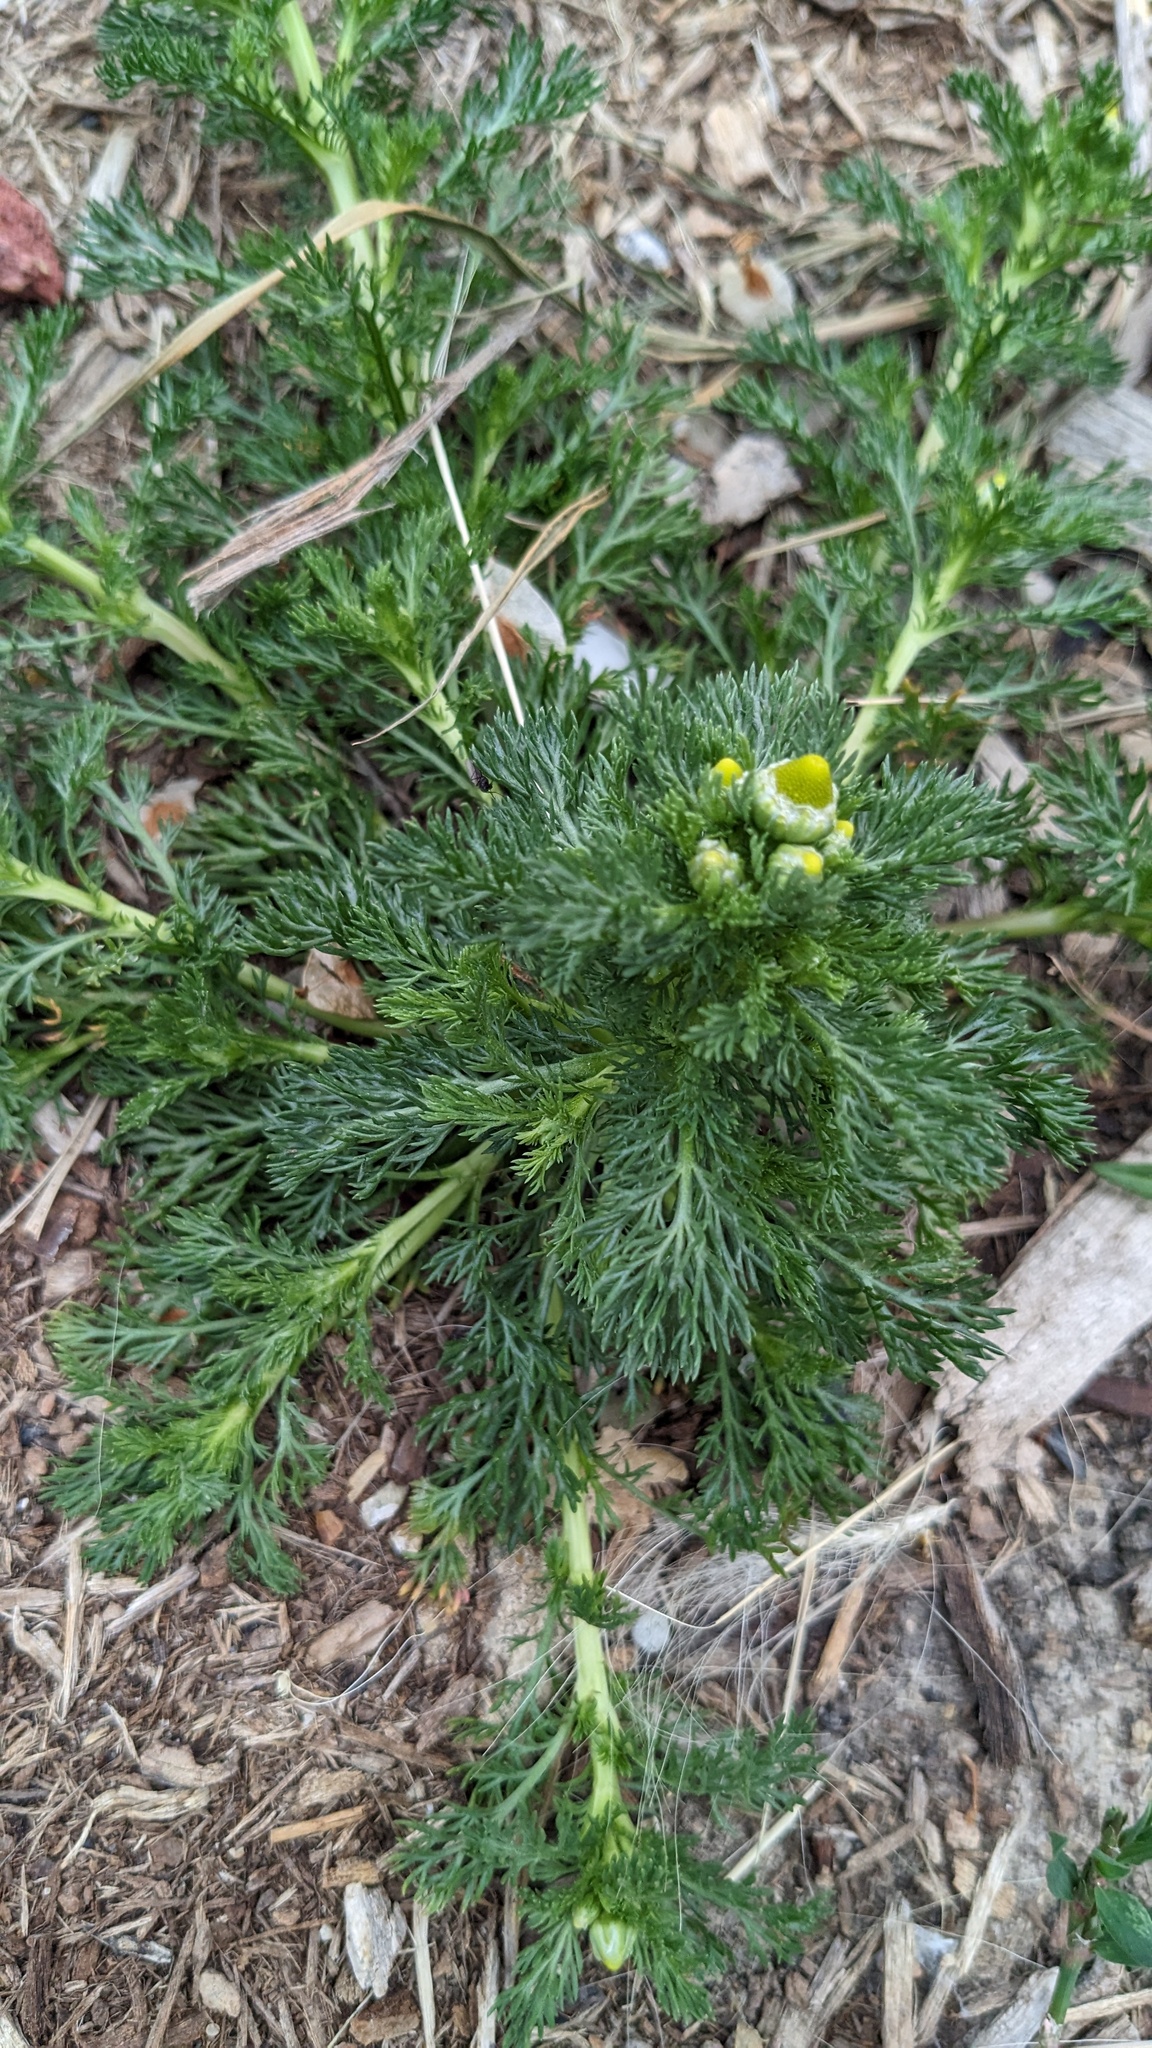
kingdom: Plantae
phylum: Tracheophyta
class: Magnoliopsida
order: Asterales
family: Asteraceae
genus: Matricaria
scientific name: Matricaria discoidea
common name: Disc mayweed
